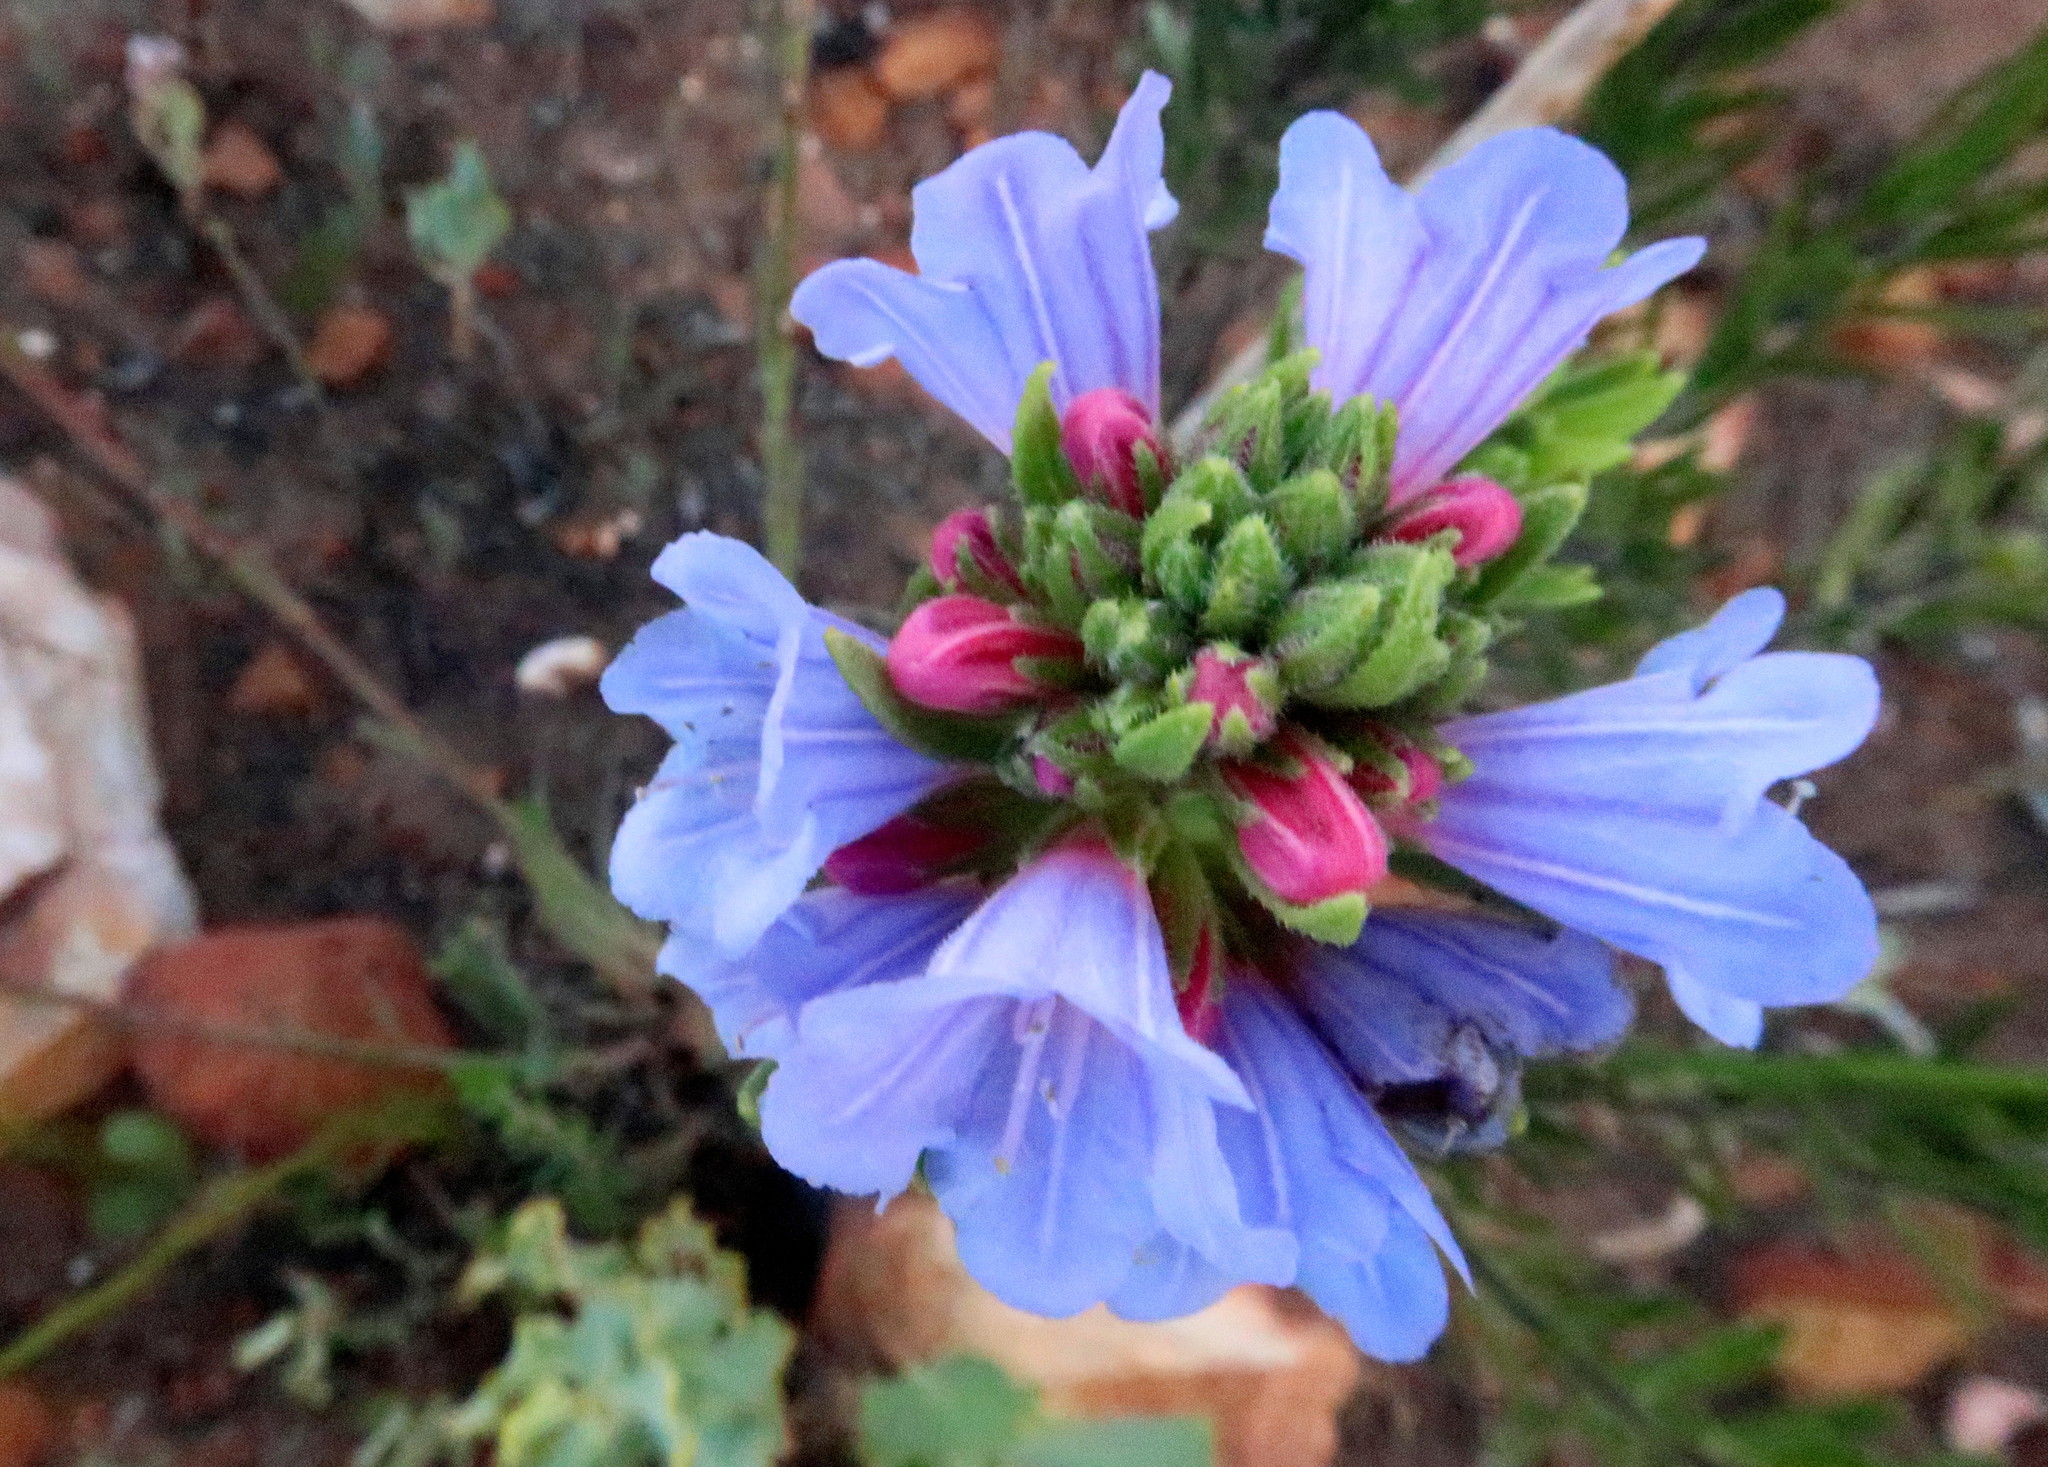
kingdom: Plantae
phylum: Tracheophyta
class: Magnoliopsida
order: Boraginales
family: Boraginaceae
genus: Lobostemon
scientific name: Lobostemon fruticosus
